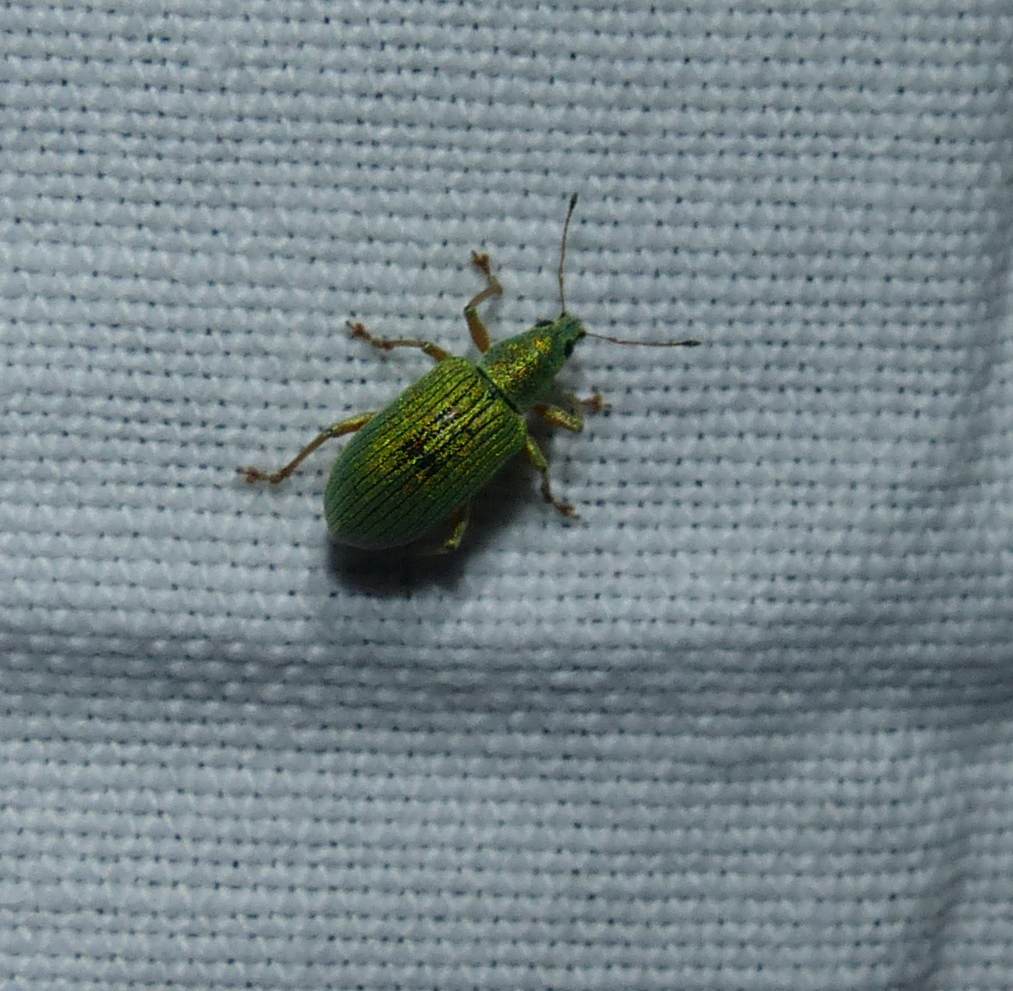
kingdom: Animalia
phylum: Arthropoda
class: Insecta
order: Coleoptera
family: Curculionidae
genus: Polydrusus
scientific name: Polydrusus formosus
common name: Weevil
